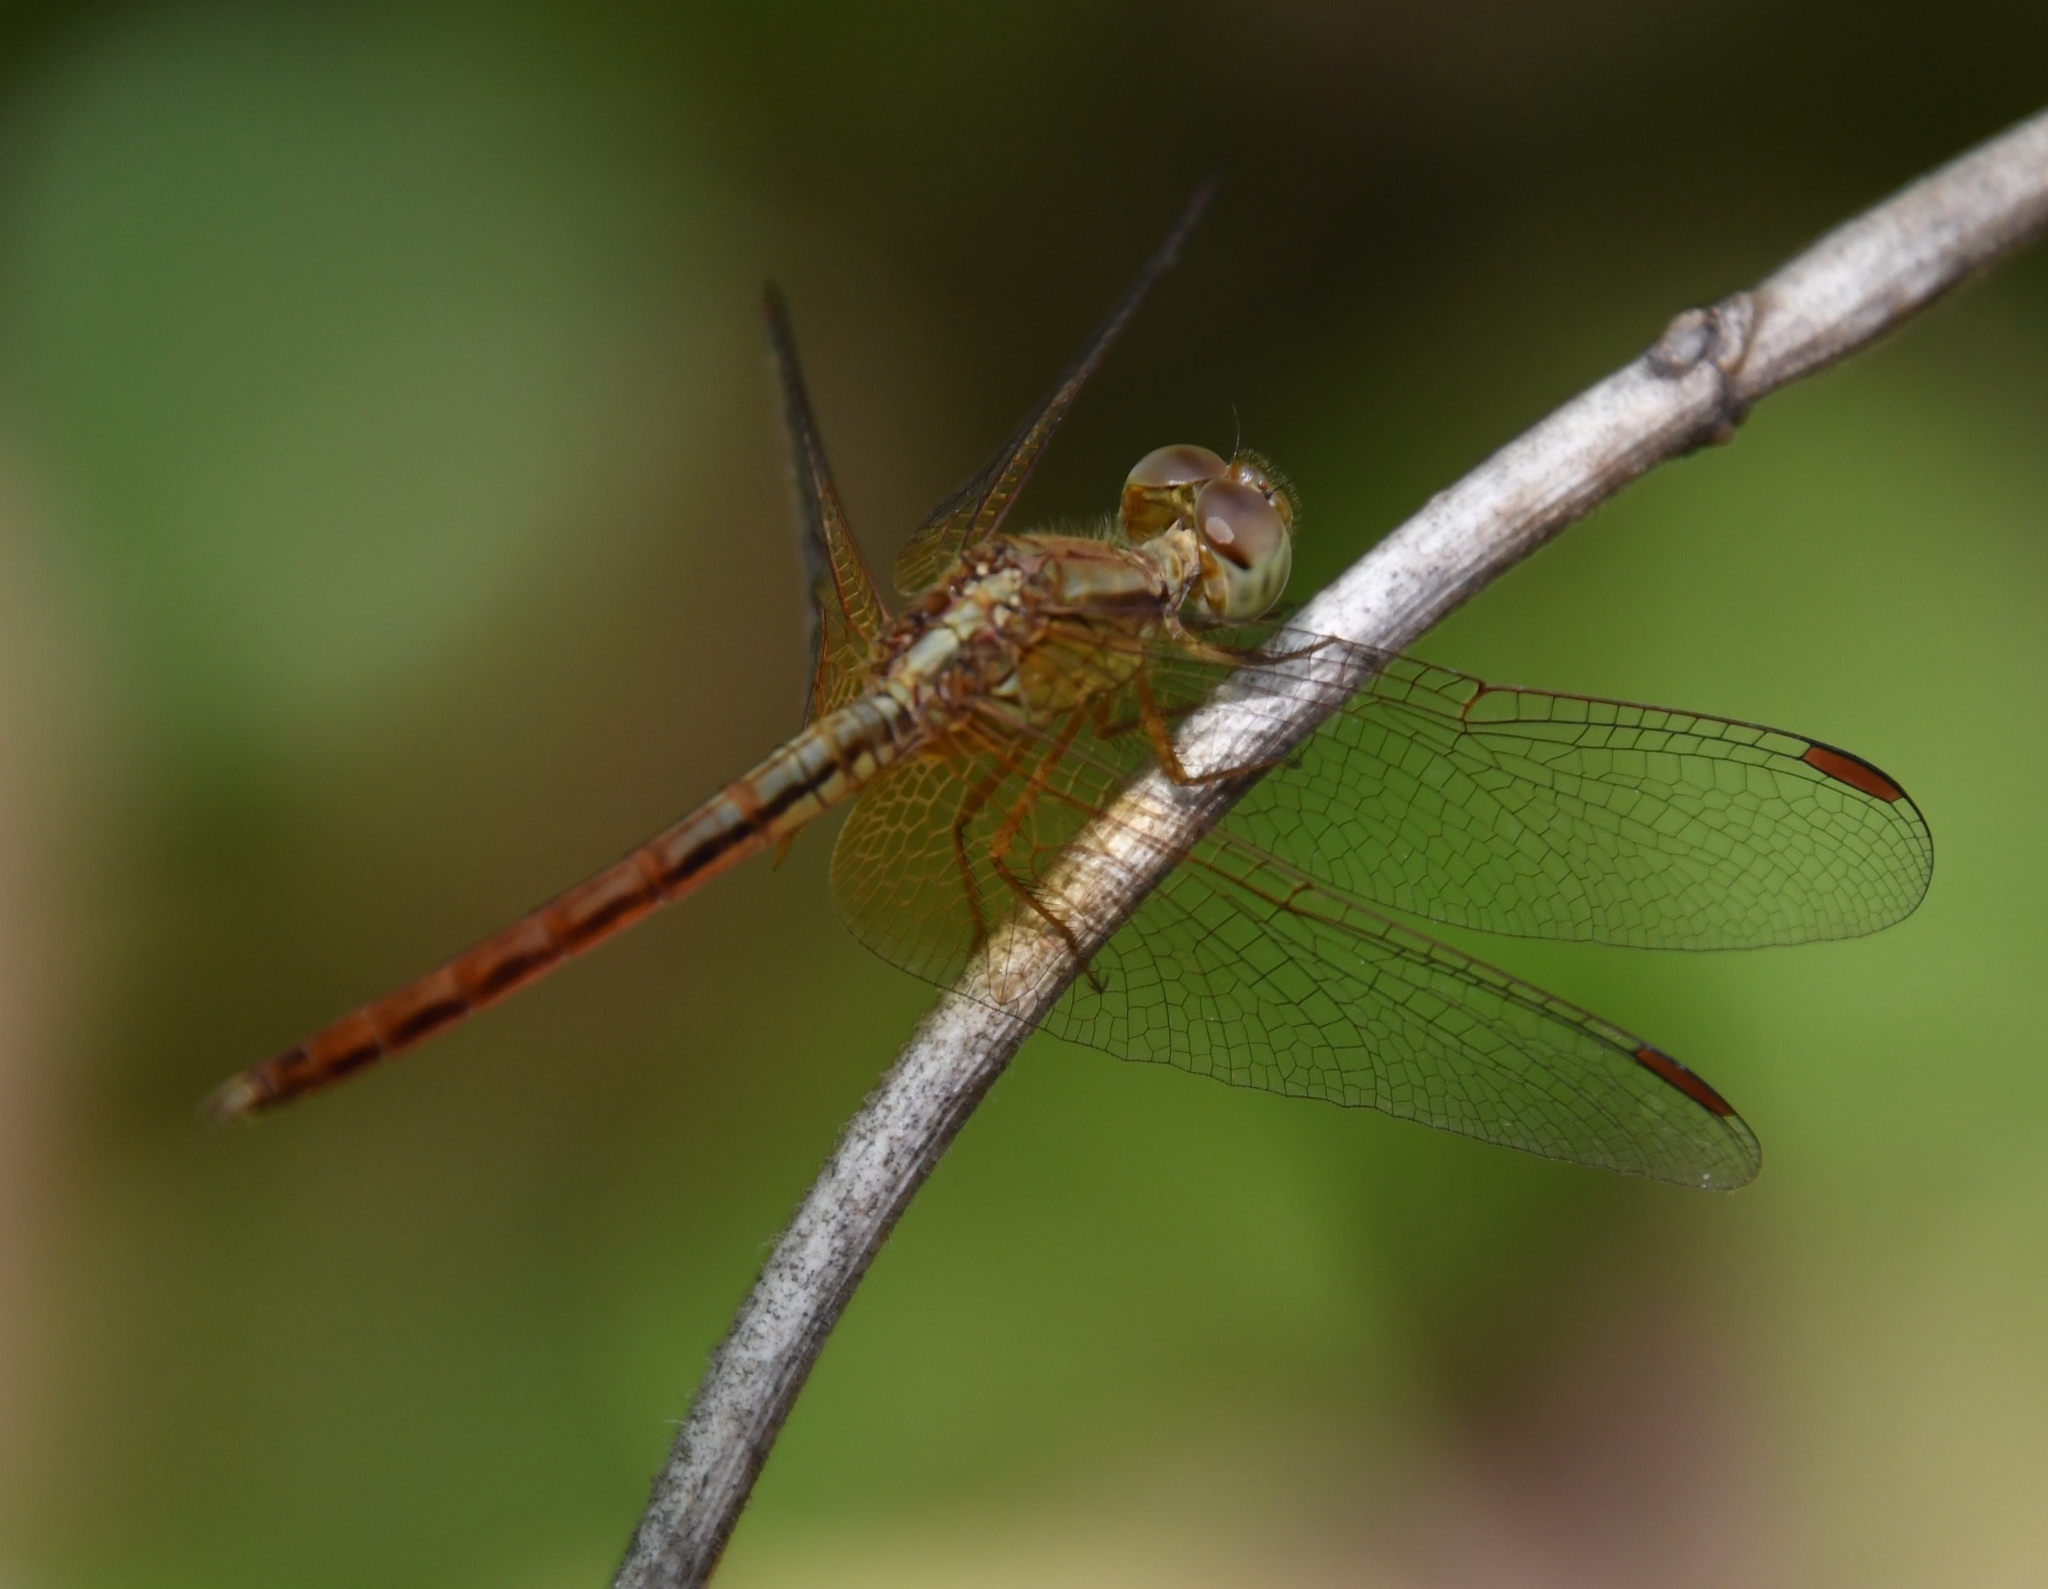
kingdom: Animalia
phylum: Arthropoda
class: Insecta
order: Odonata
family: Libellulidae
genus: Neurothemis
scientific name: Neurothemis intermedia
